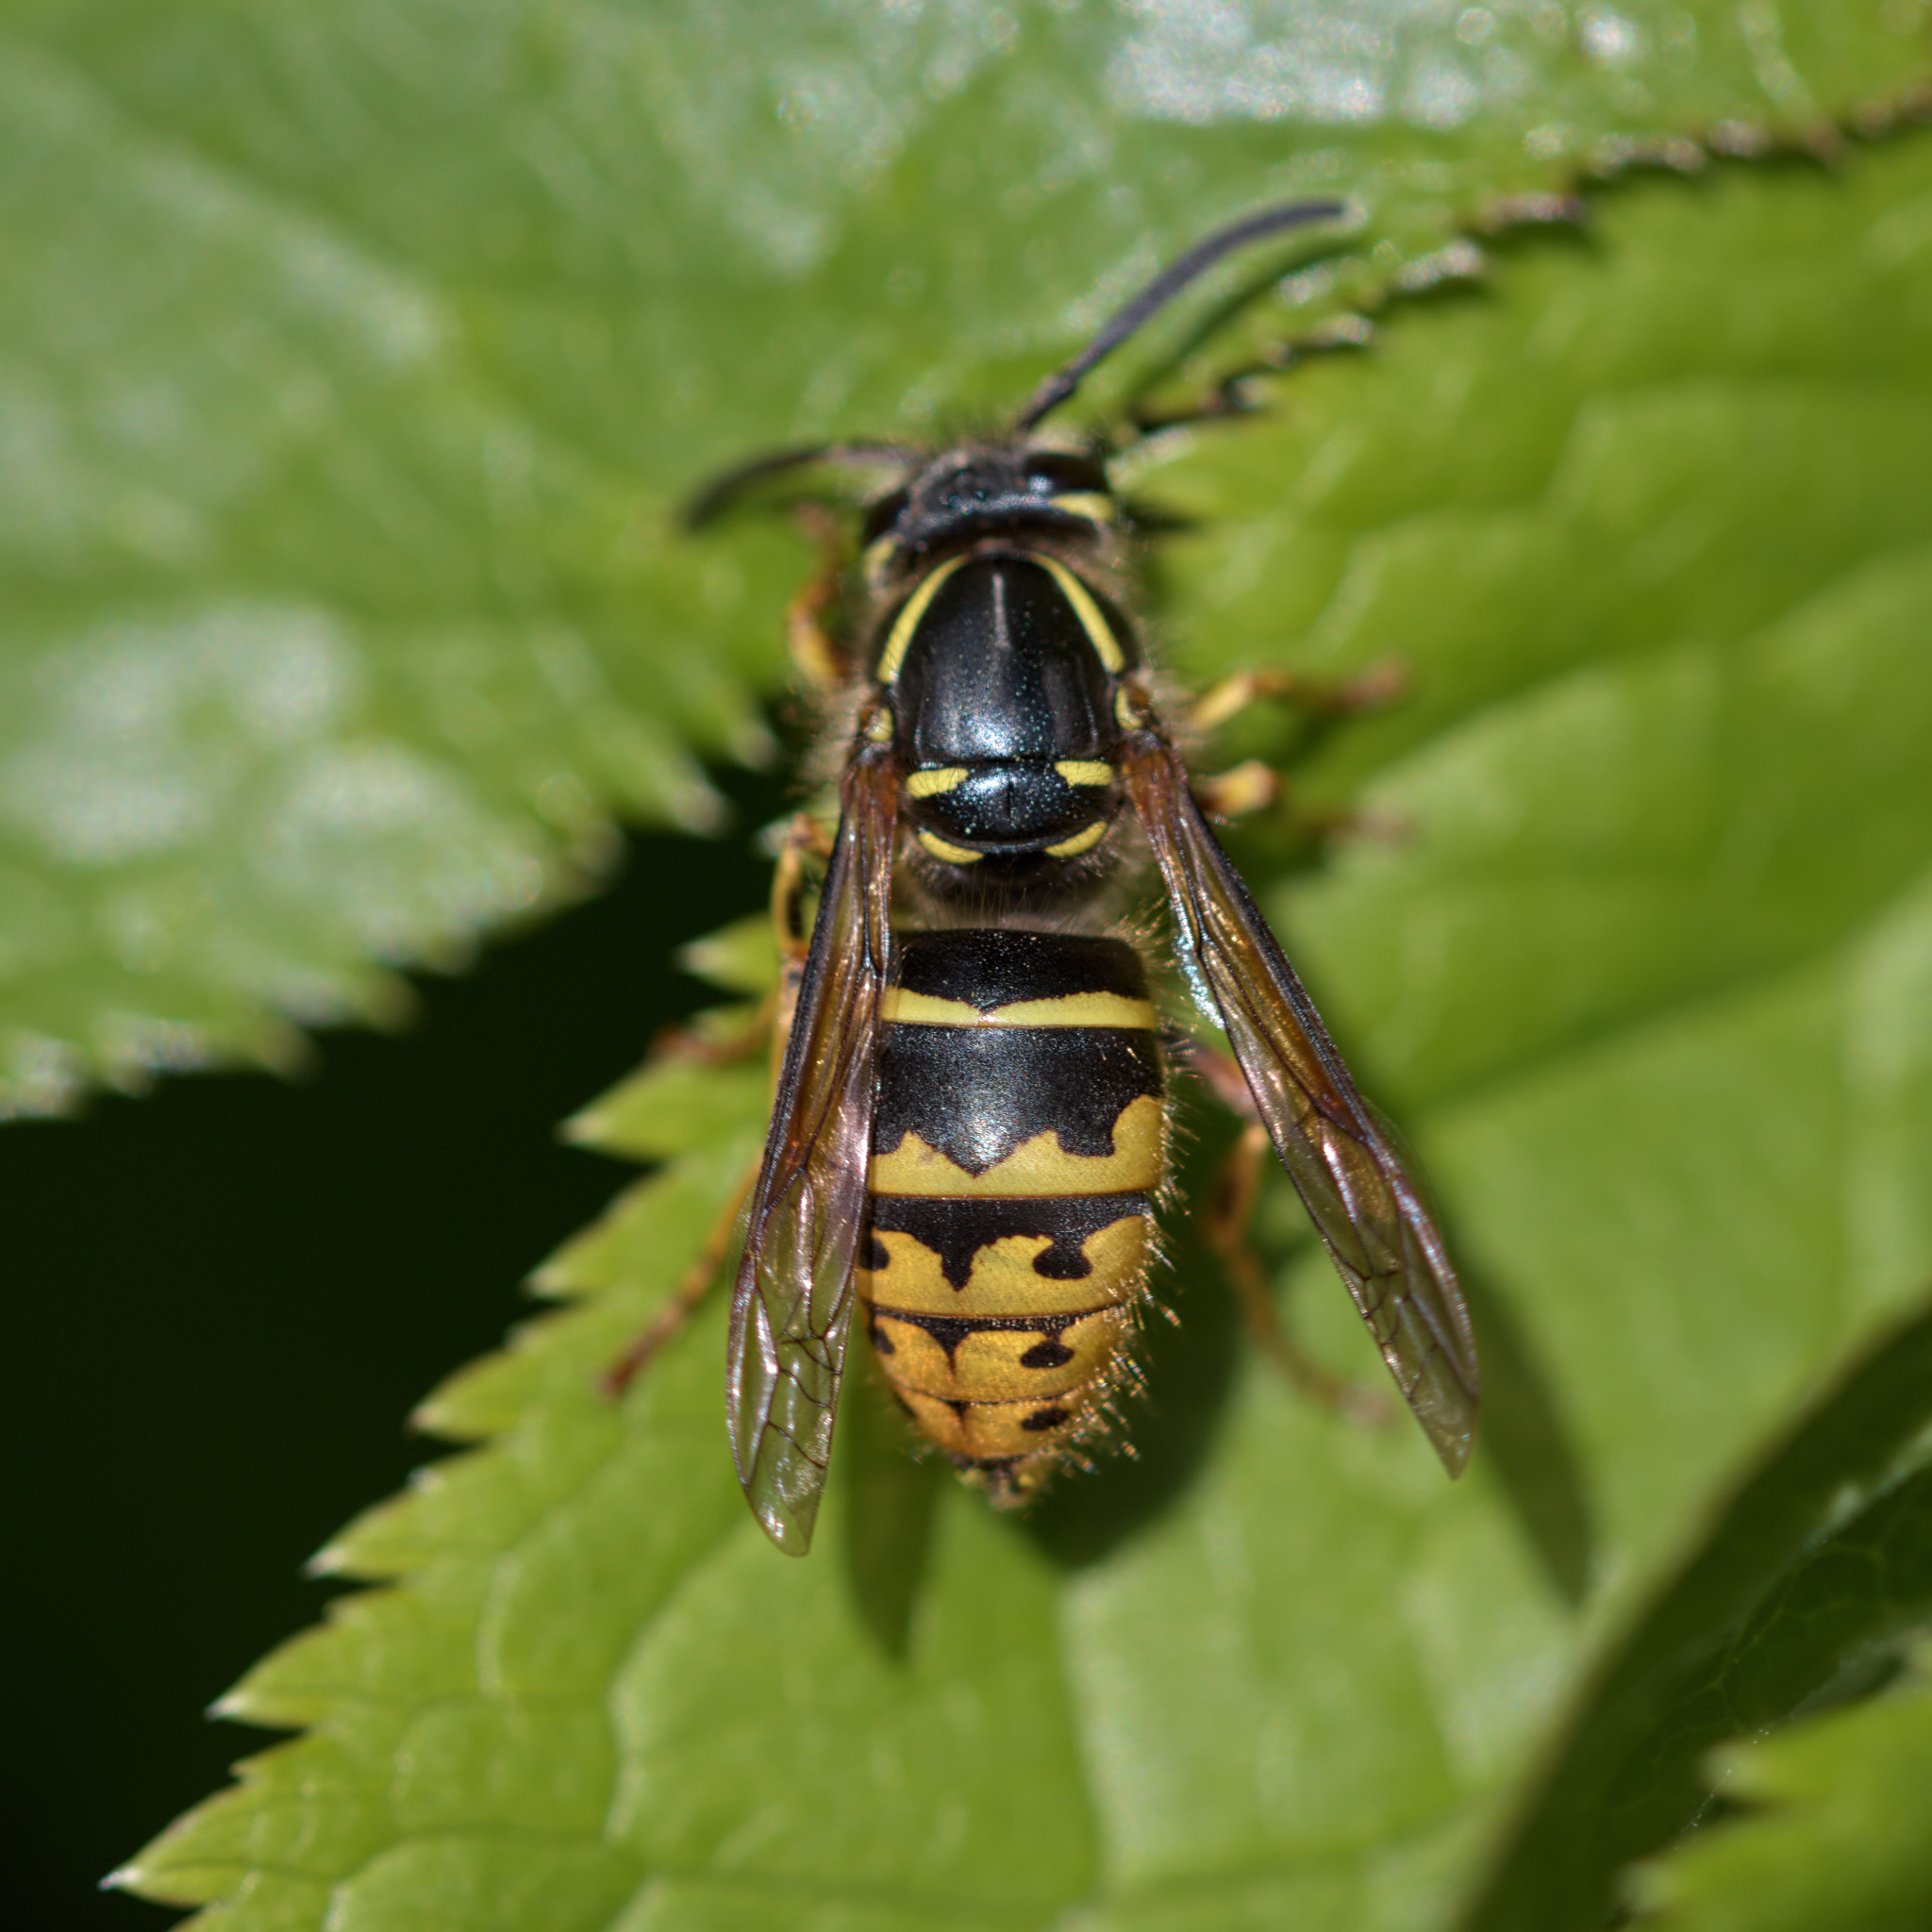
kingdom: Animalia
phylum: Arthropoda
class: Insecta
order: Hymenoptera
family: Vespidae
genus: Vespula
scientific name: Vespula alascensis
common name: Alaska yellowjacket
